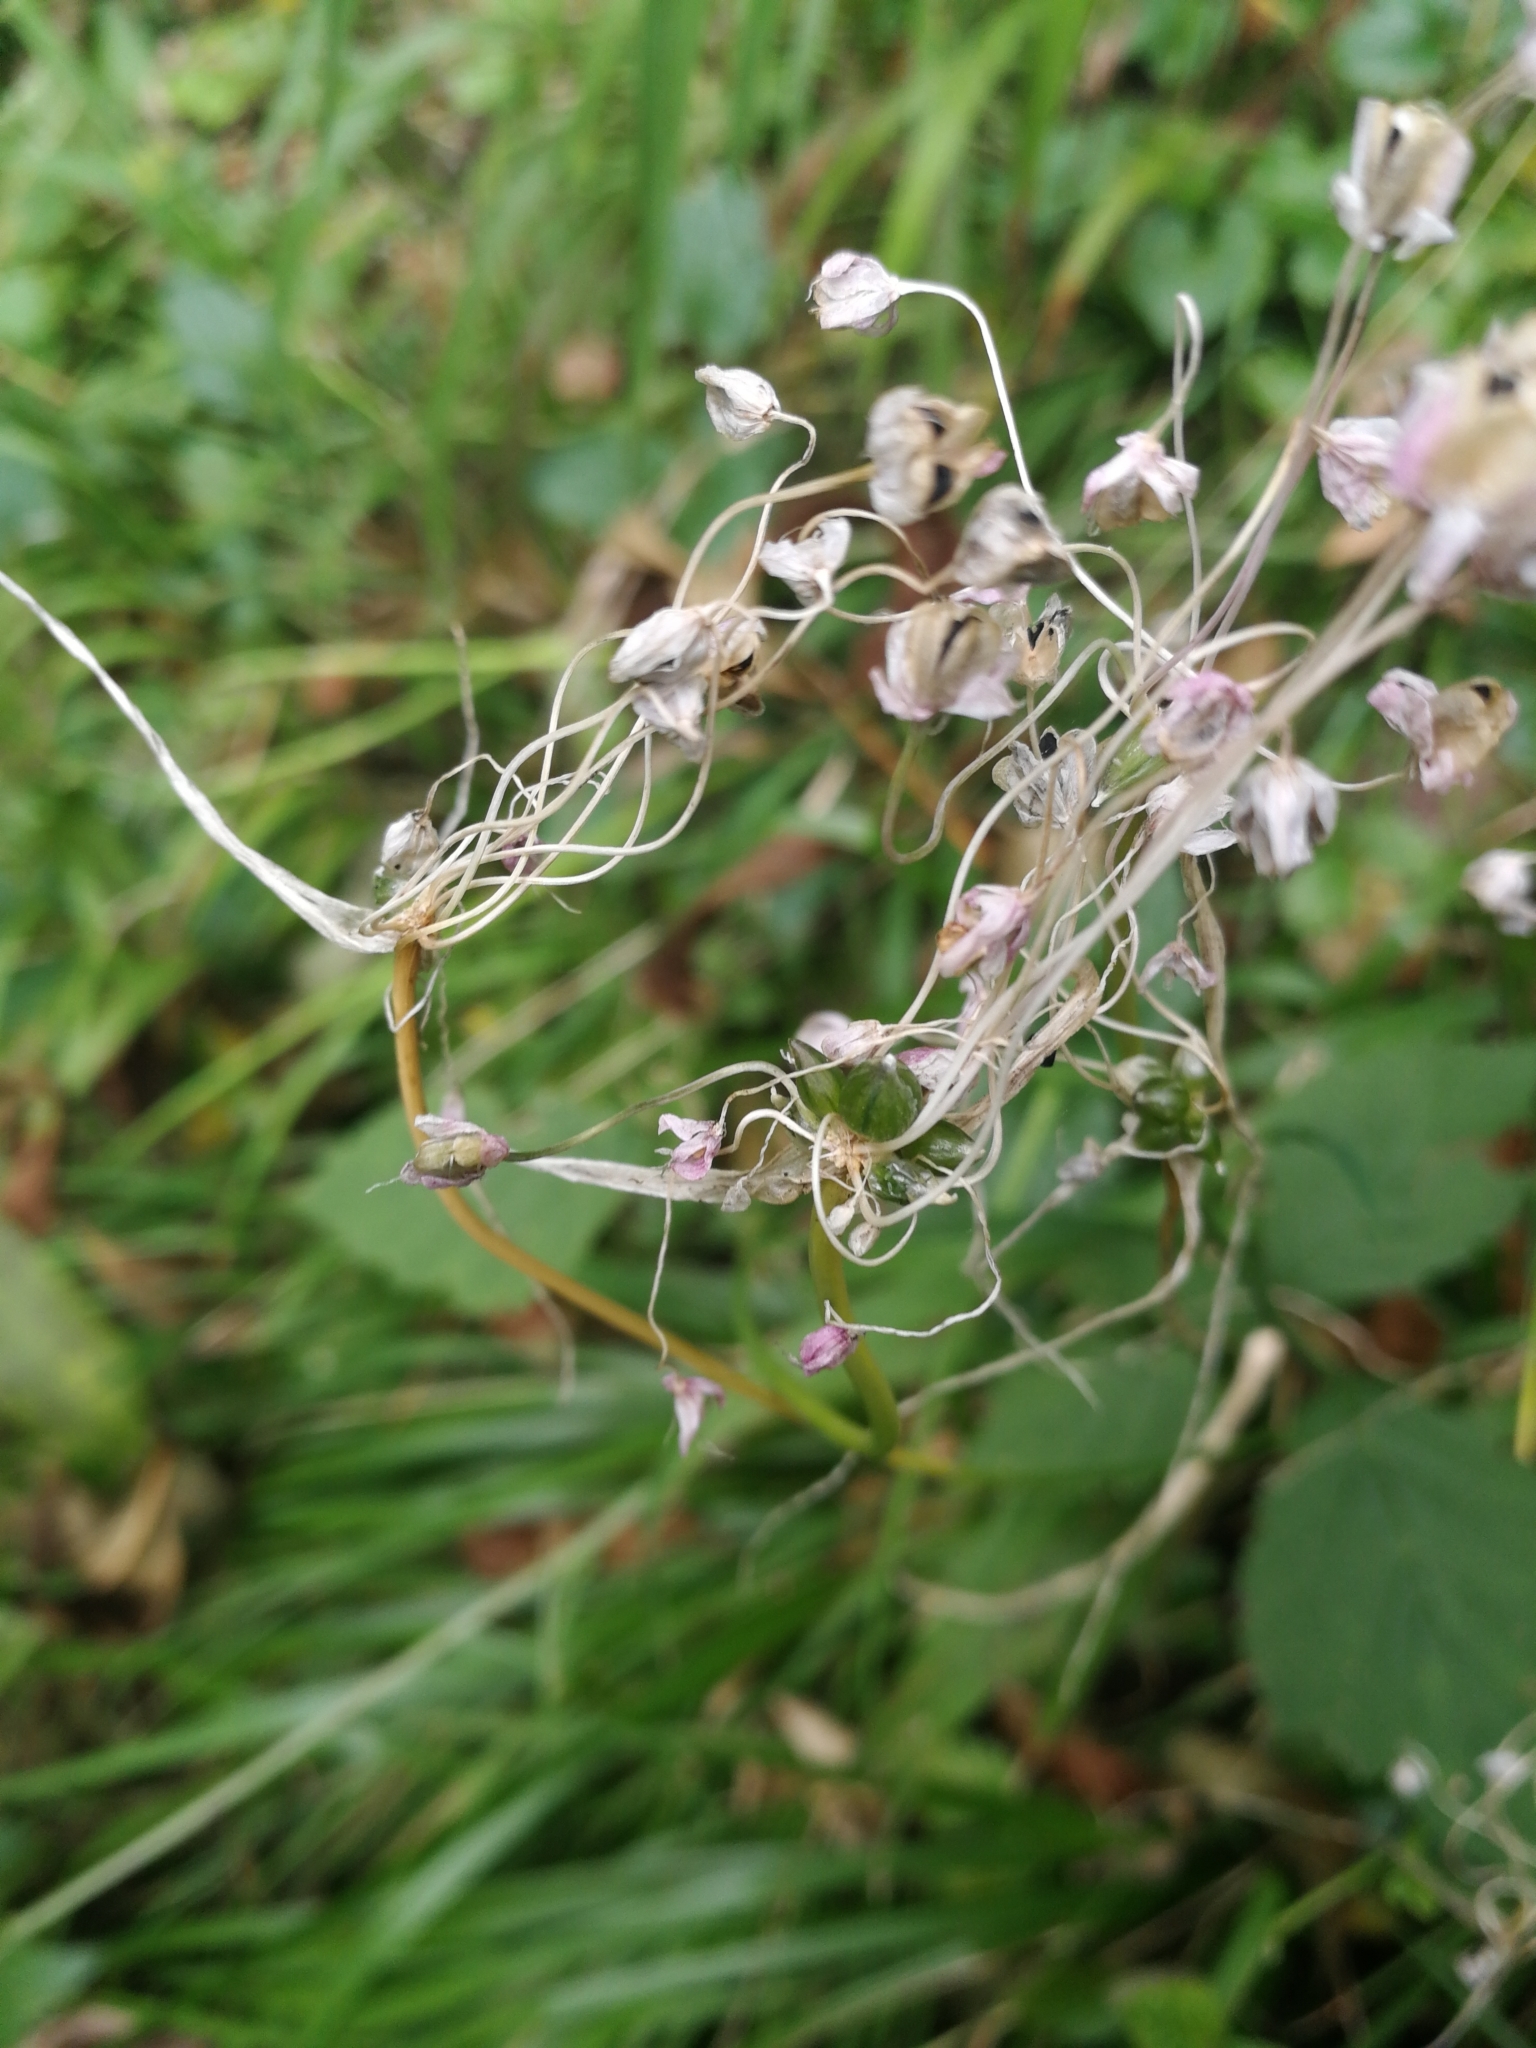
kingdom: Plantae
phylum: Tracheophyta
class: Liliopsida
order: Asparagales
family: Amaryllidaceae
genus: Allium
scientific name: Allium carinatum
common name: Keeled garlic
